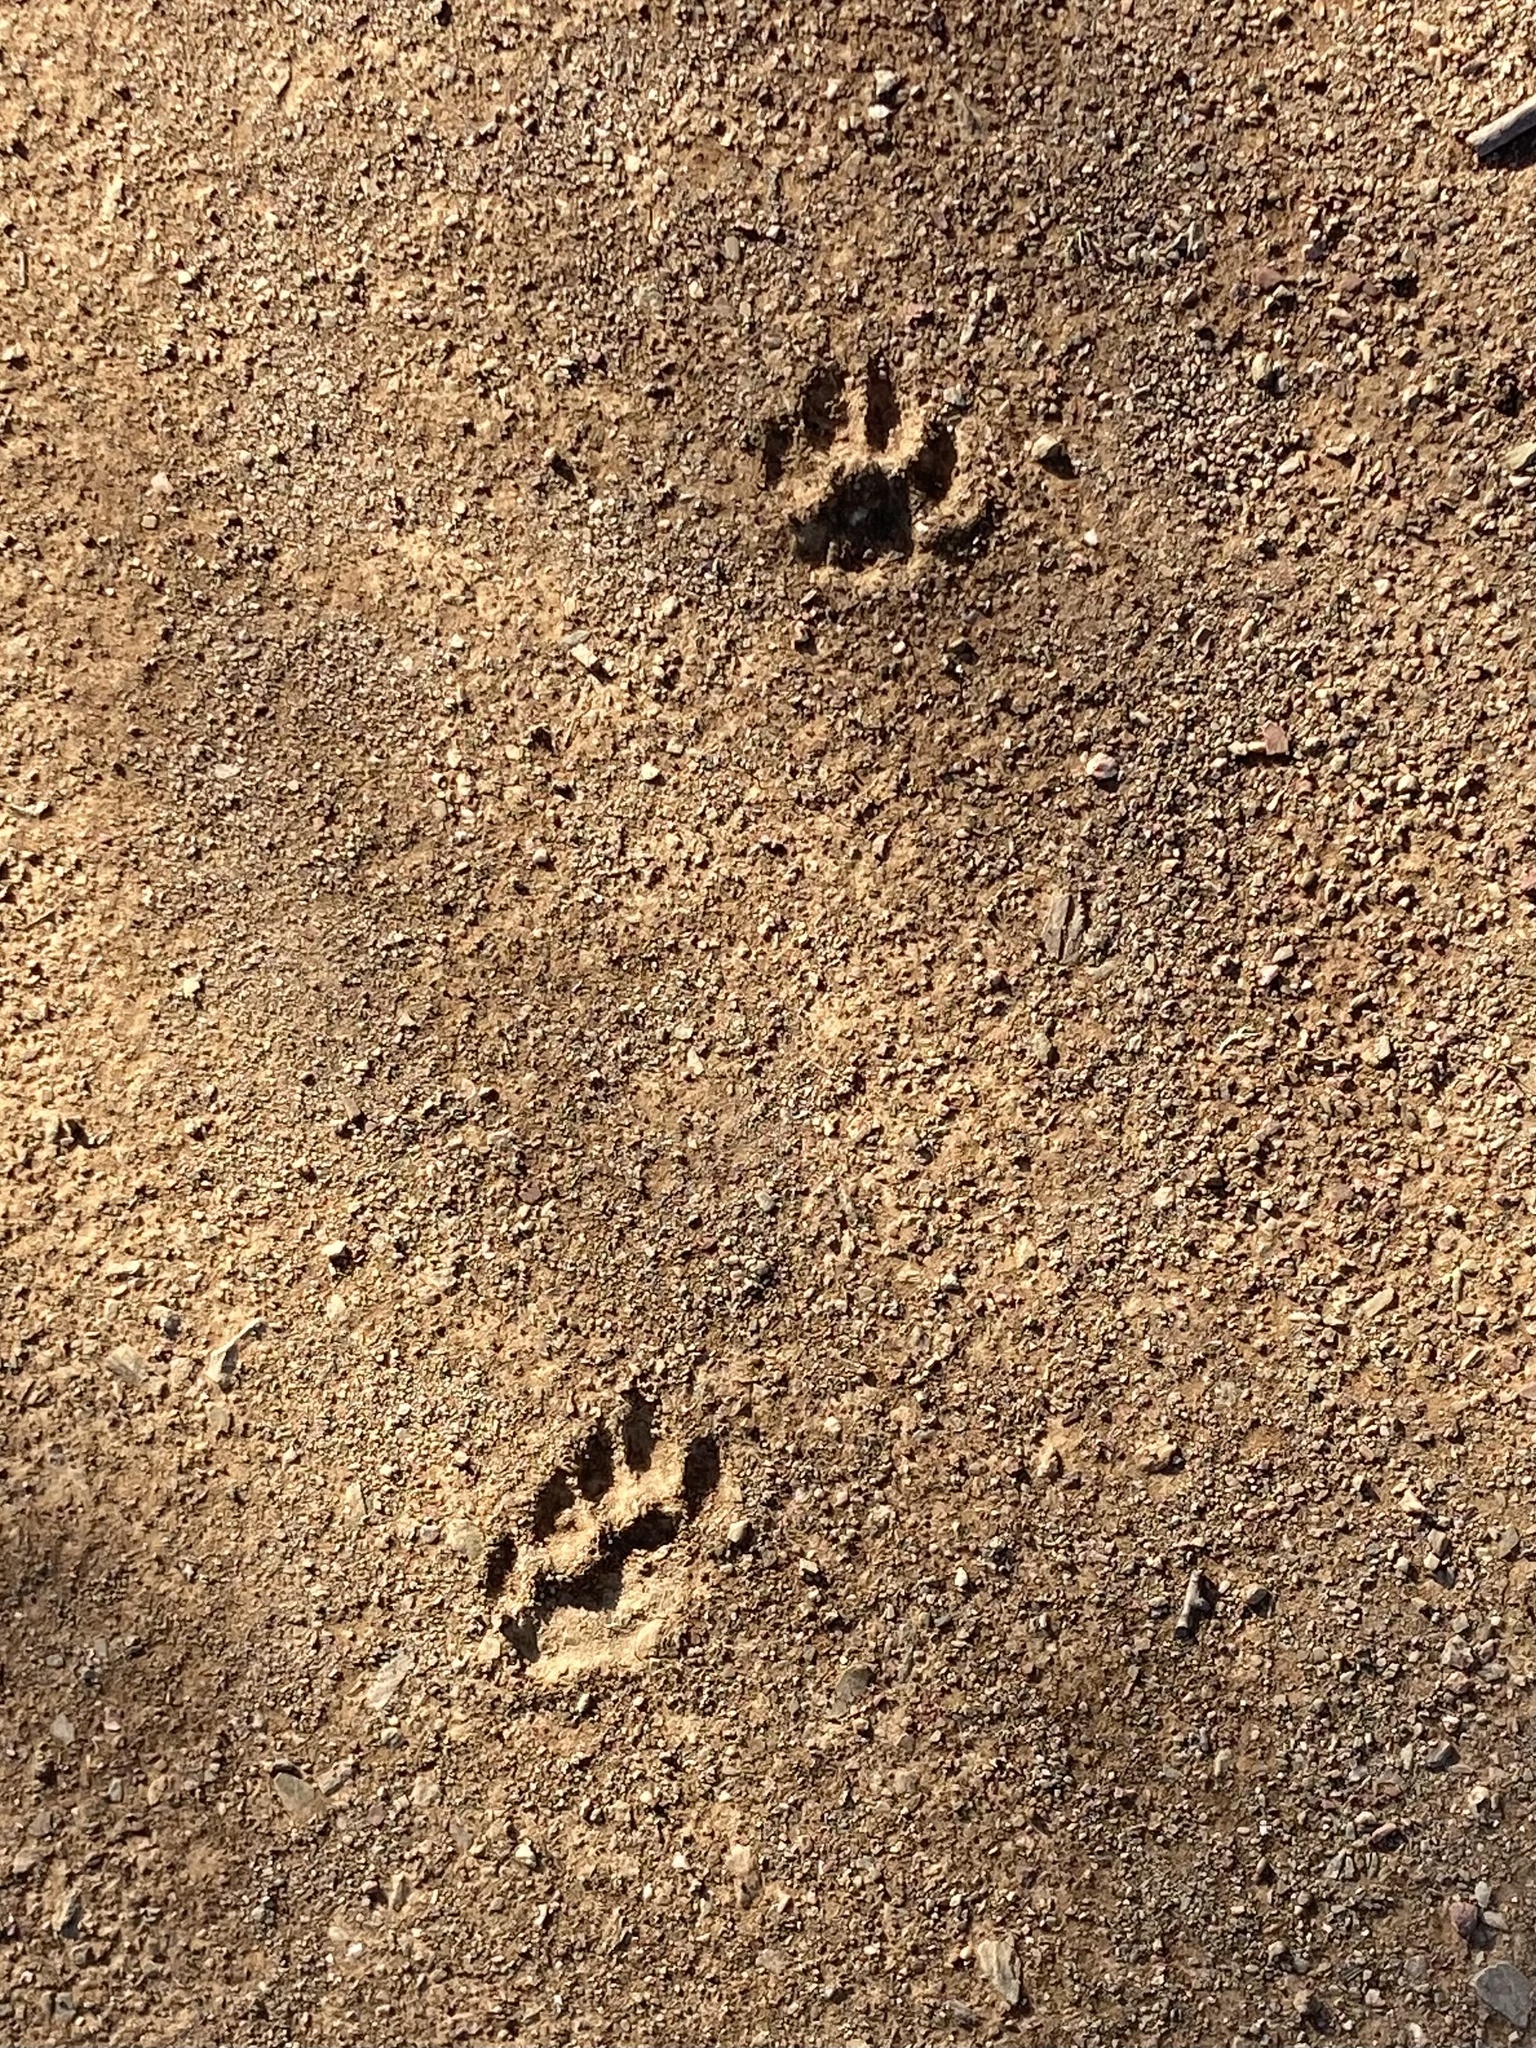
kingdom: Animalia
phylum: Chordata
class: Mammalia
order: Carnivora
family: Felidae
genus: Lynx
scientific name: Lynx pardinus
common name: Spanish lynx
